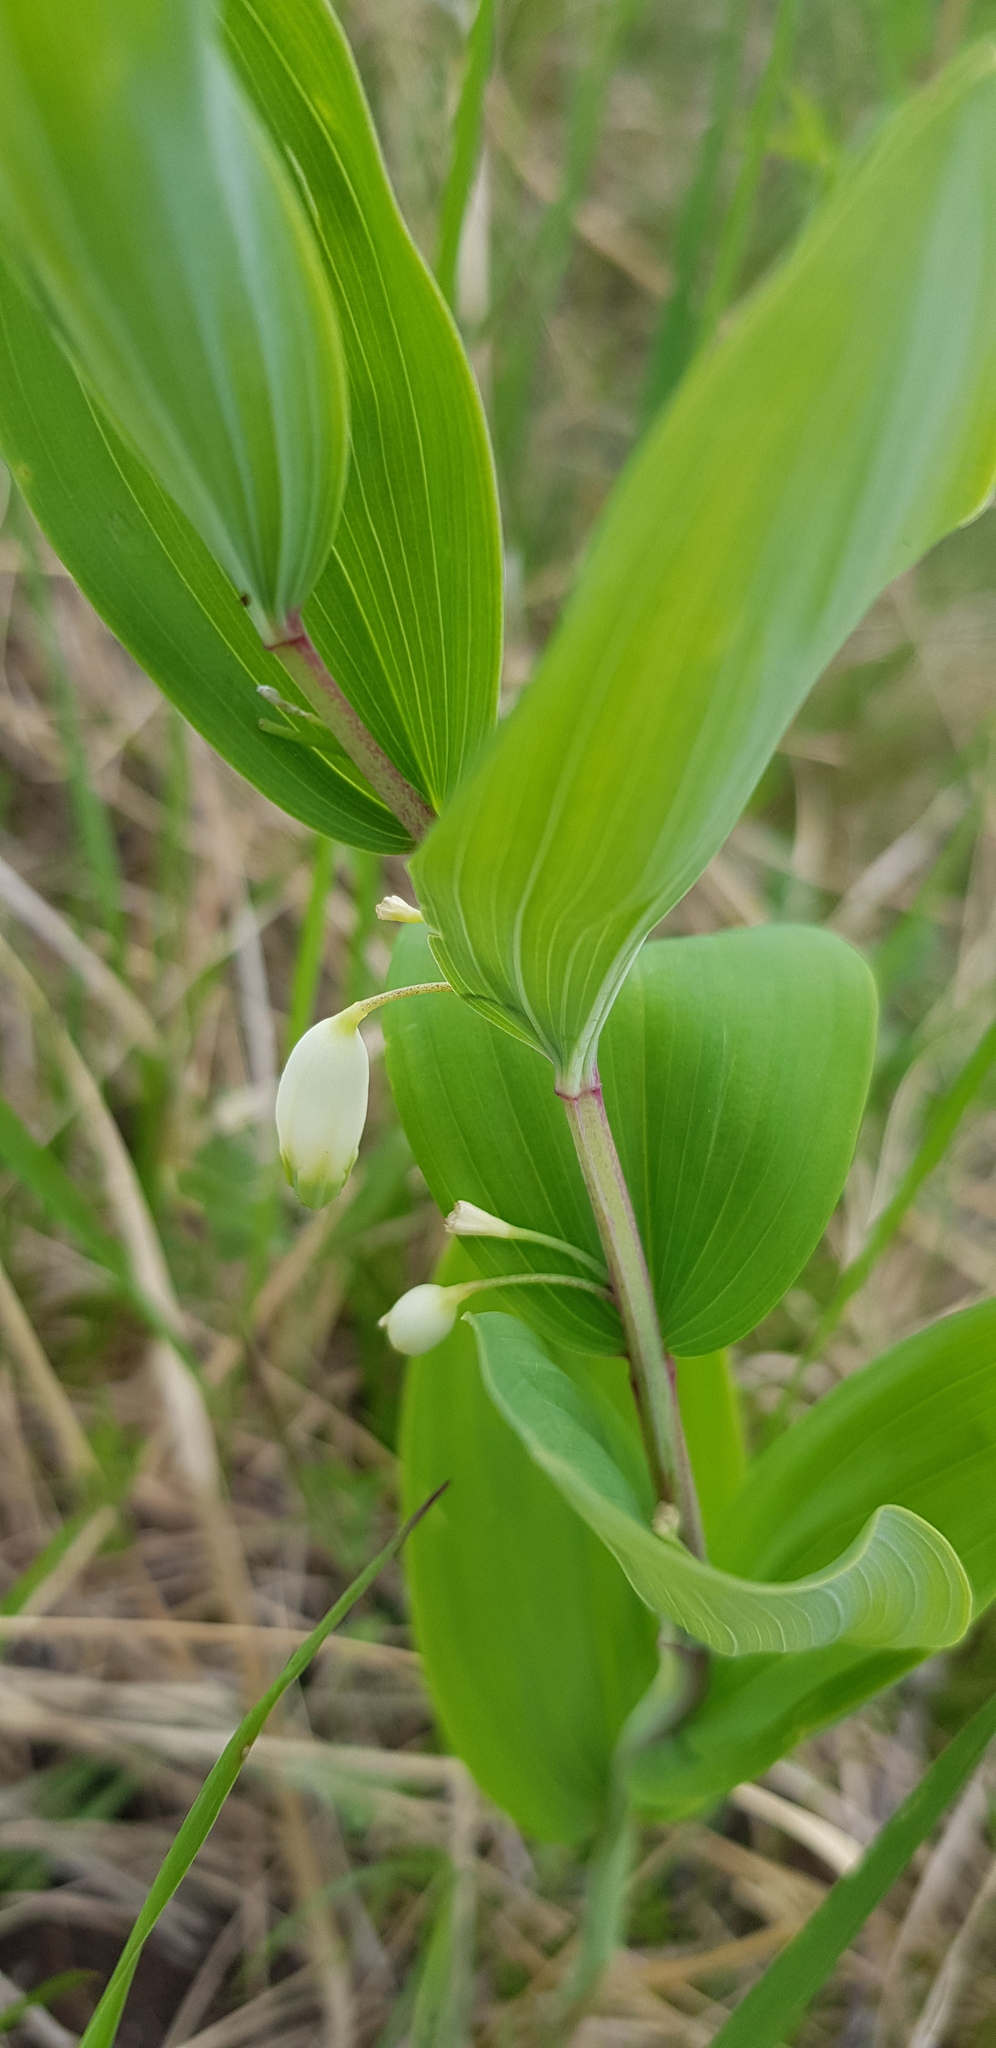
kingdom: Plantae
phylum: Tracheophyta
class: Liliopsida
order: Asparagales
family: Asparagaceae
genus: Polygonatum
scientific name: Polygonatum humile
